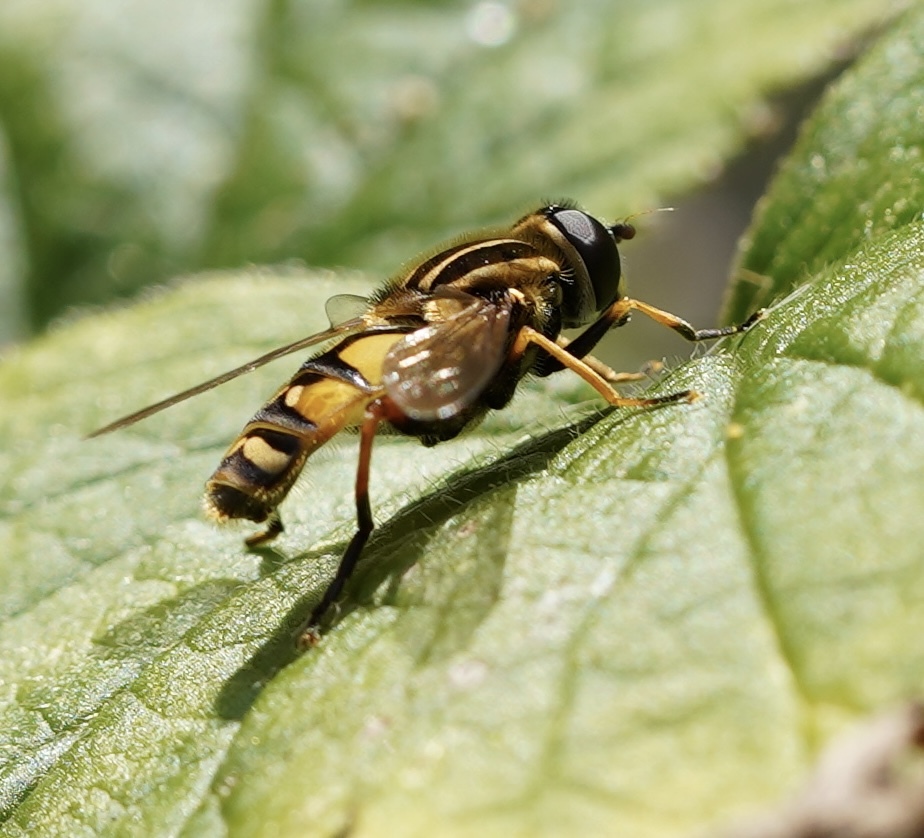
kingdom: Animalia
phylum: Arthropoda
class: Insecta
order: Diptera
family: Syrphidae
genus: Helophilus
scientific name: Helophilus pendulus
